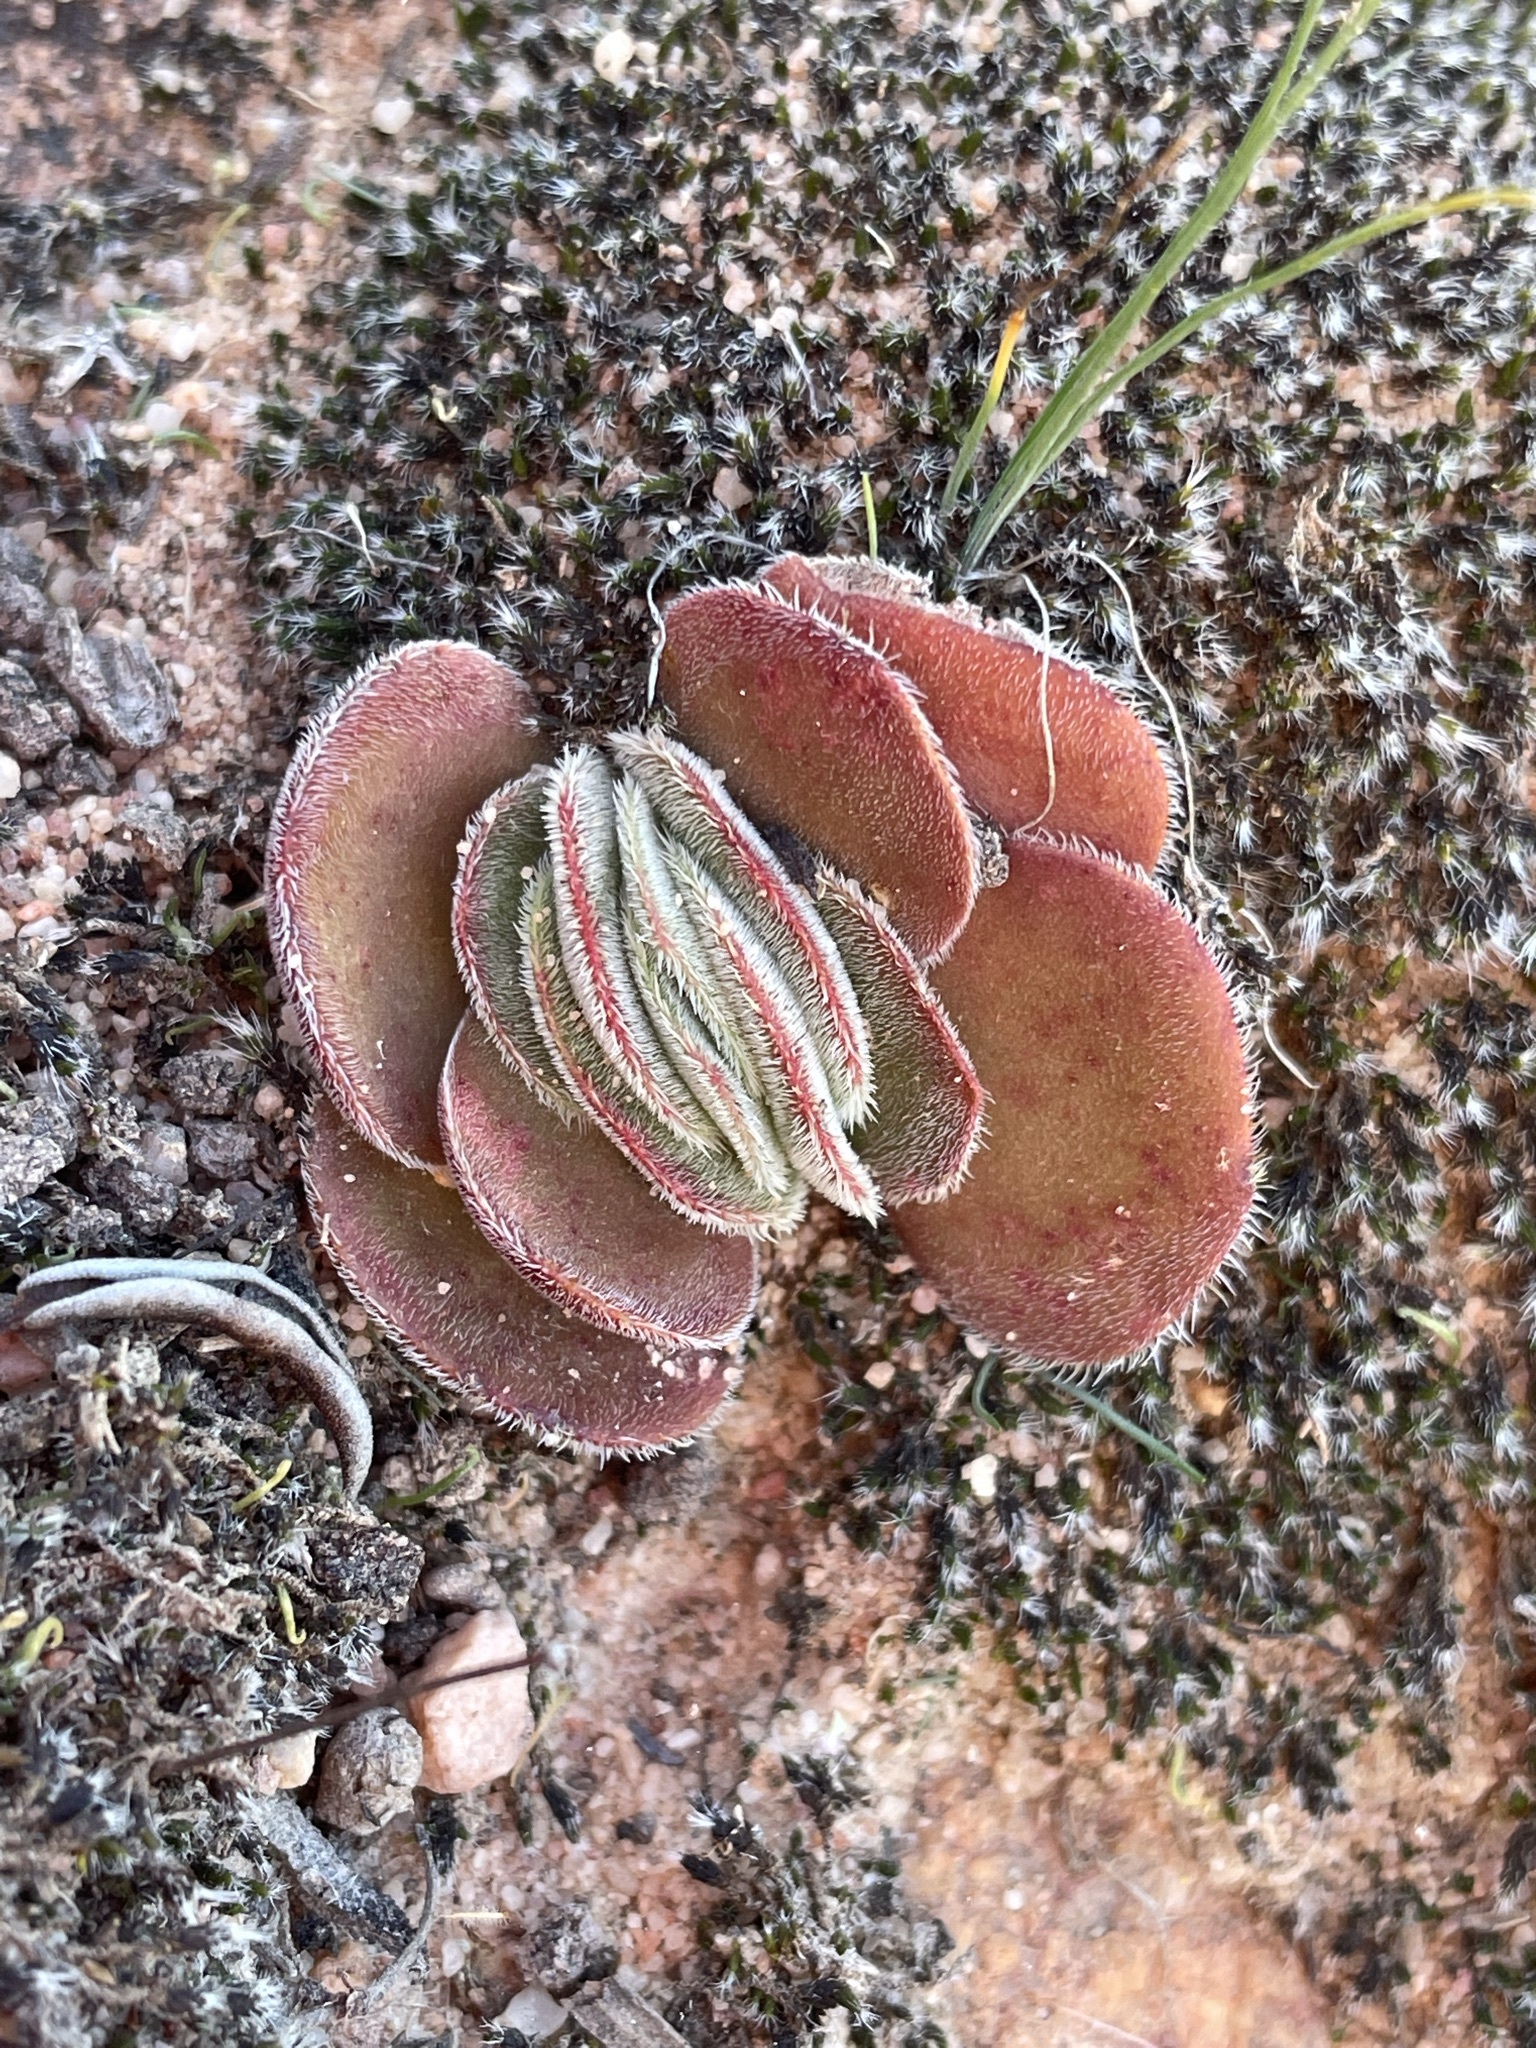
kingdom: Plantae
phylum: Tracheophyta
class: Magnoliopsida
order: Saxifragales
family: Crassulaceae
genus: Crassula
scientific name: Crassula tomentosa
